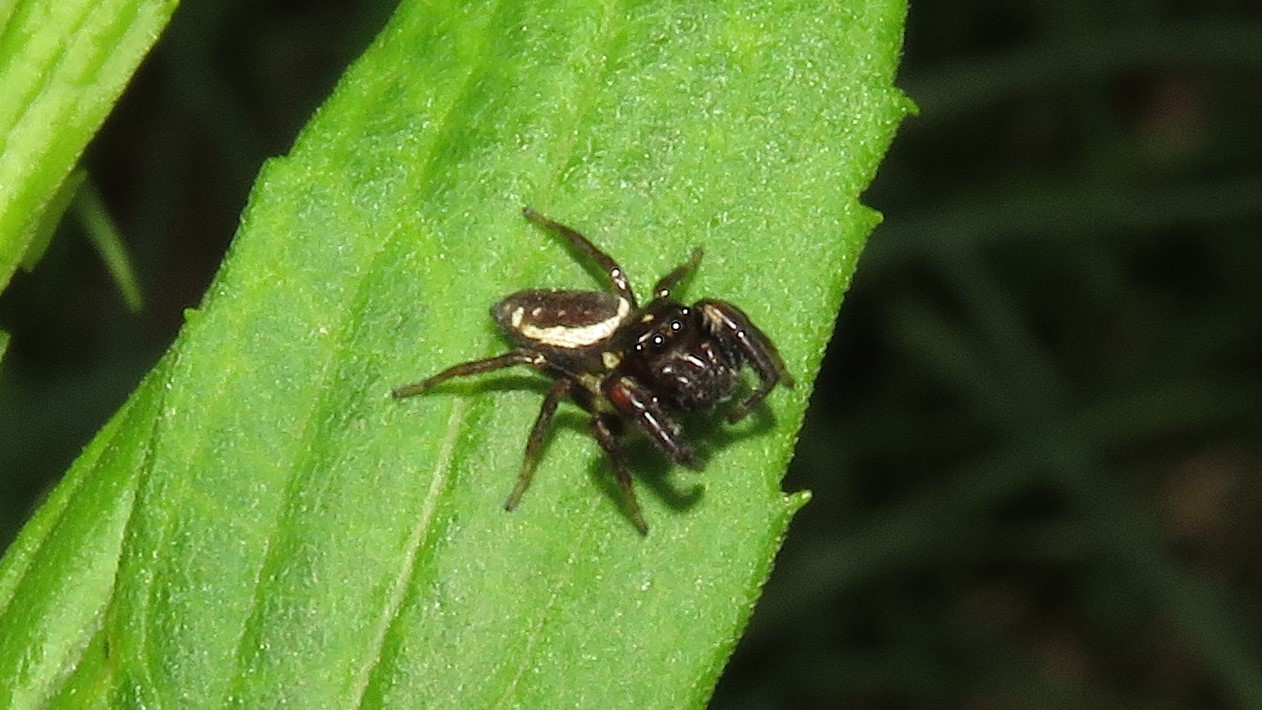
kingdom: Animalia
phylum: Arthropoda
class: Arachnida
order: Araneae
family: Salticidae
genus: Eris
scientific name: Eris militaris
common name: Bronze jumper
